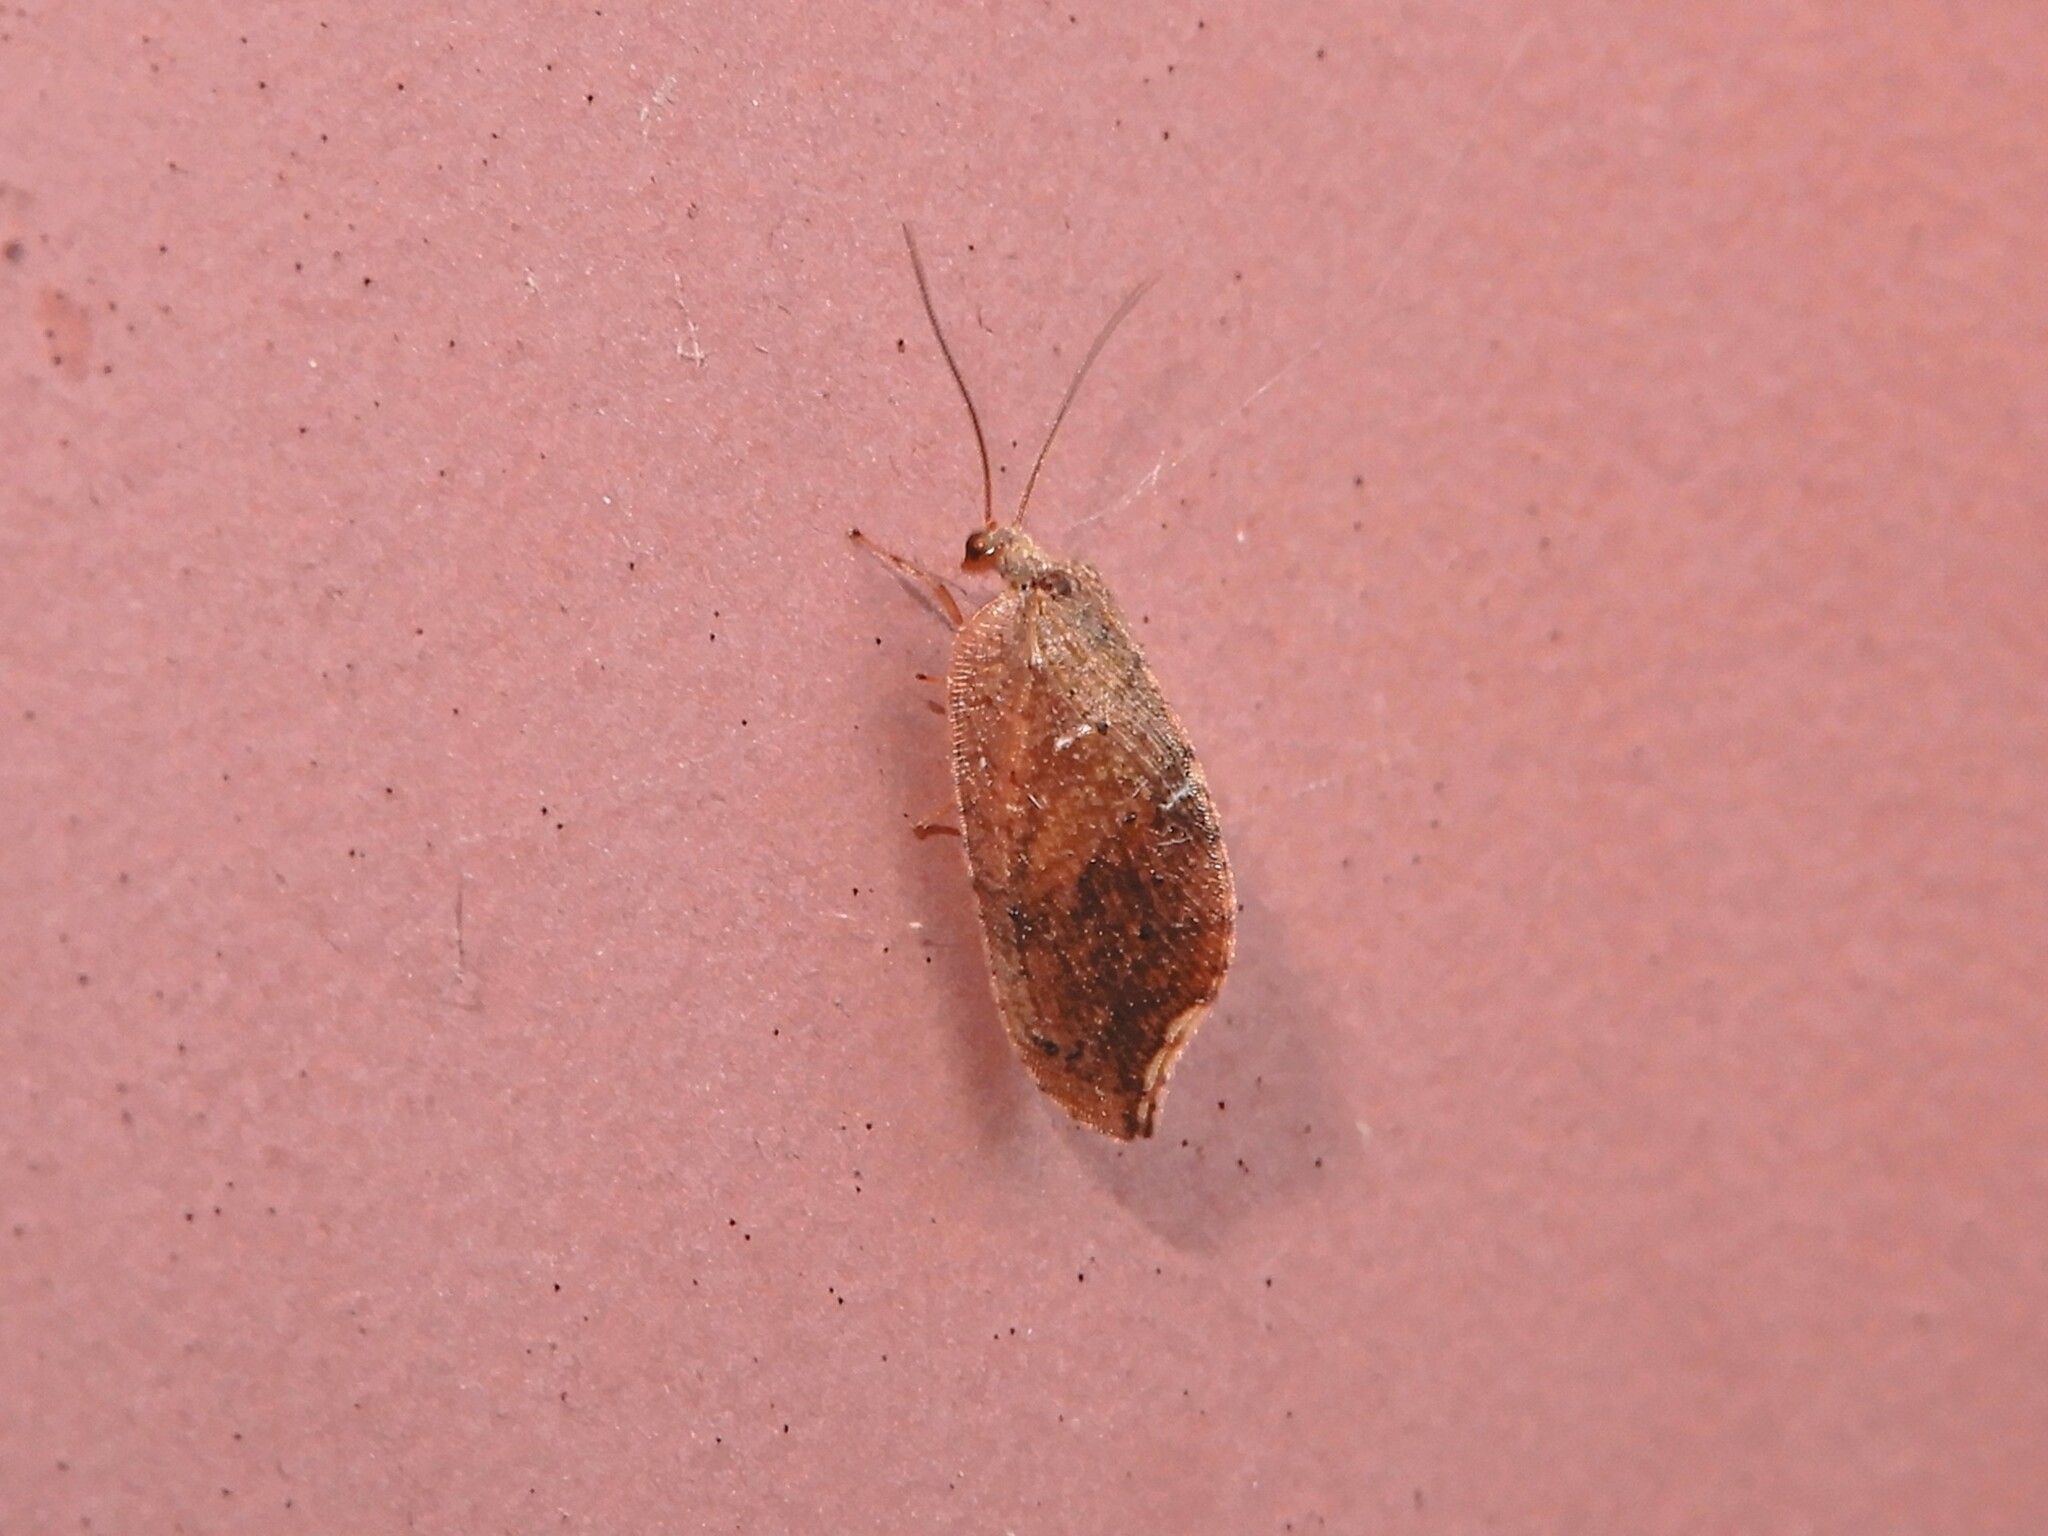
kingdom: Animalia
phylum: Arthropoda
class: Insecta
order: Neuroptera
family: Hemerobiidae
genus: Drepanacra
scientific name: Drepanacra binocula
